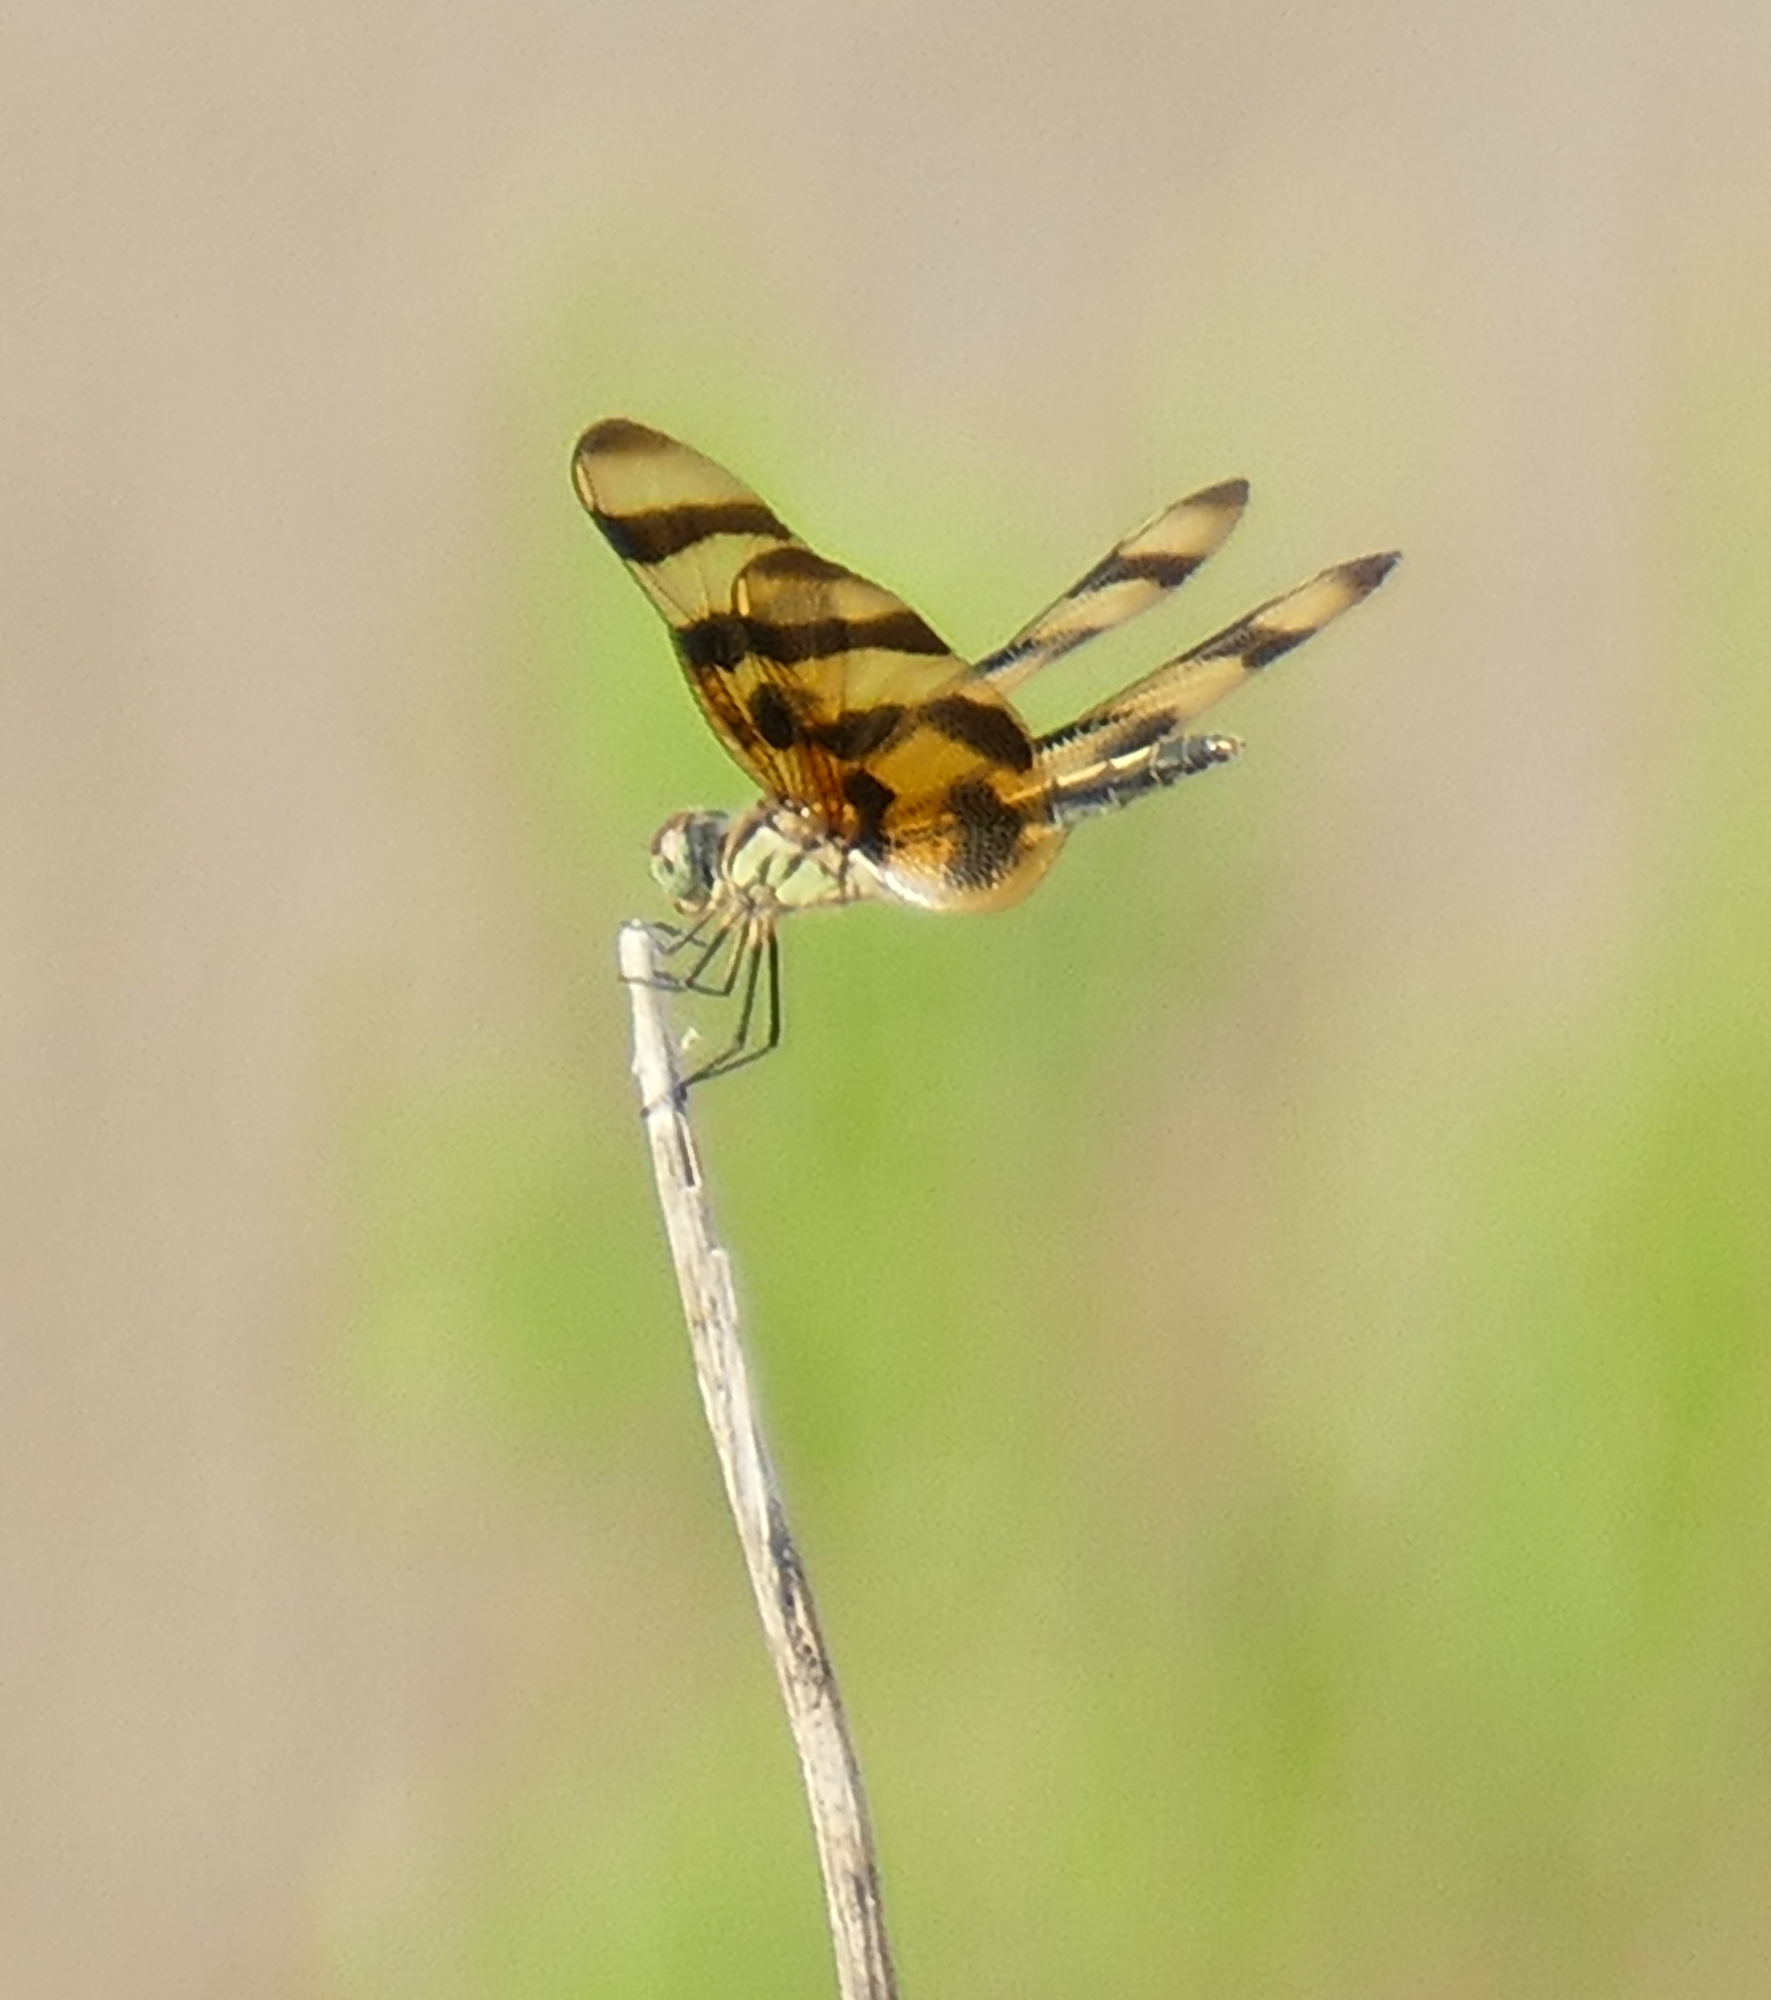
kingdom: Animalia
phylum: Arthropoda
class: Insecta
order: Odonata
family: Libellulidae
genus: Celithemis
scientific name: Celithemis eponina
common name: Halloween pennant
